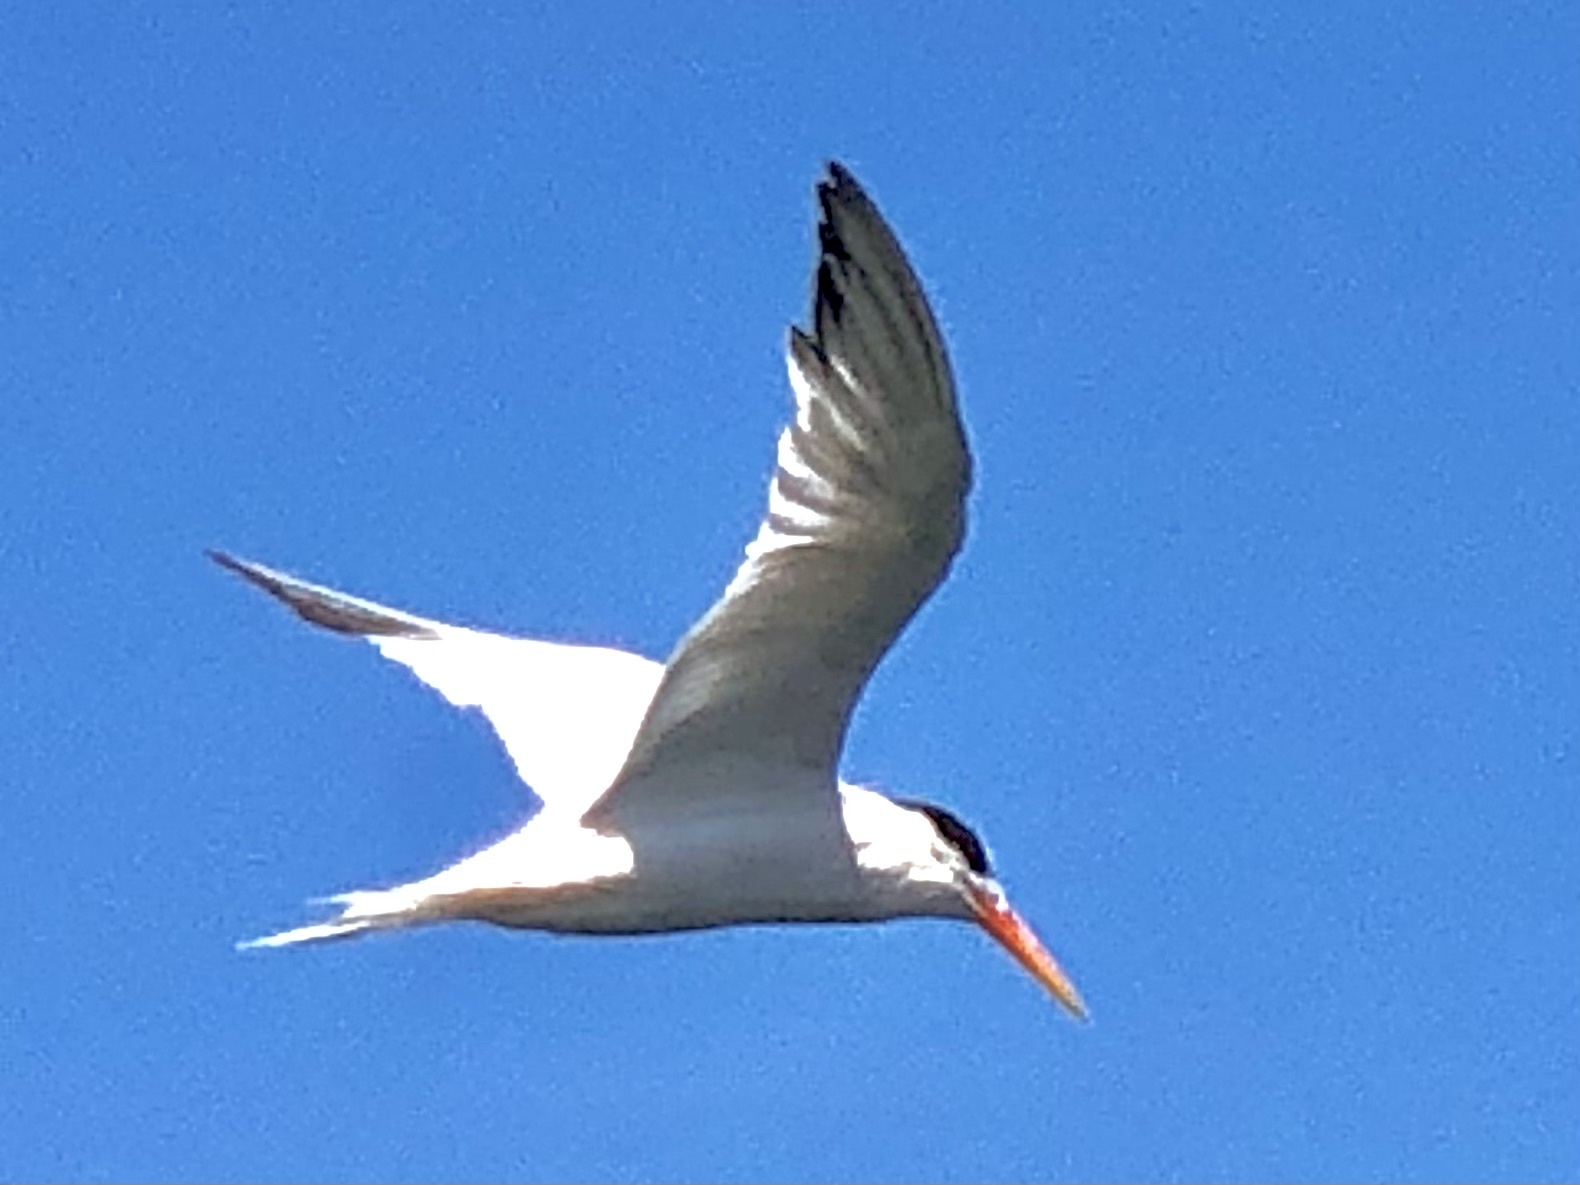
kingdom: Animalia
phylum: Chordata
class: Aves
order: Charadriiformes
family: Laridae
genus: Thalasseus
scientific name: Thalasseus elegans
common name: Elegant tern
